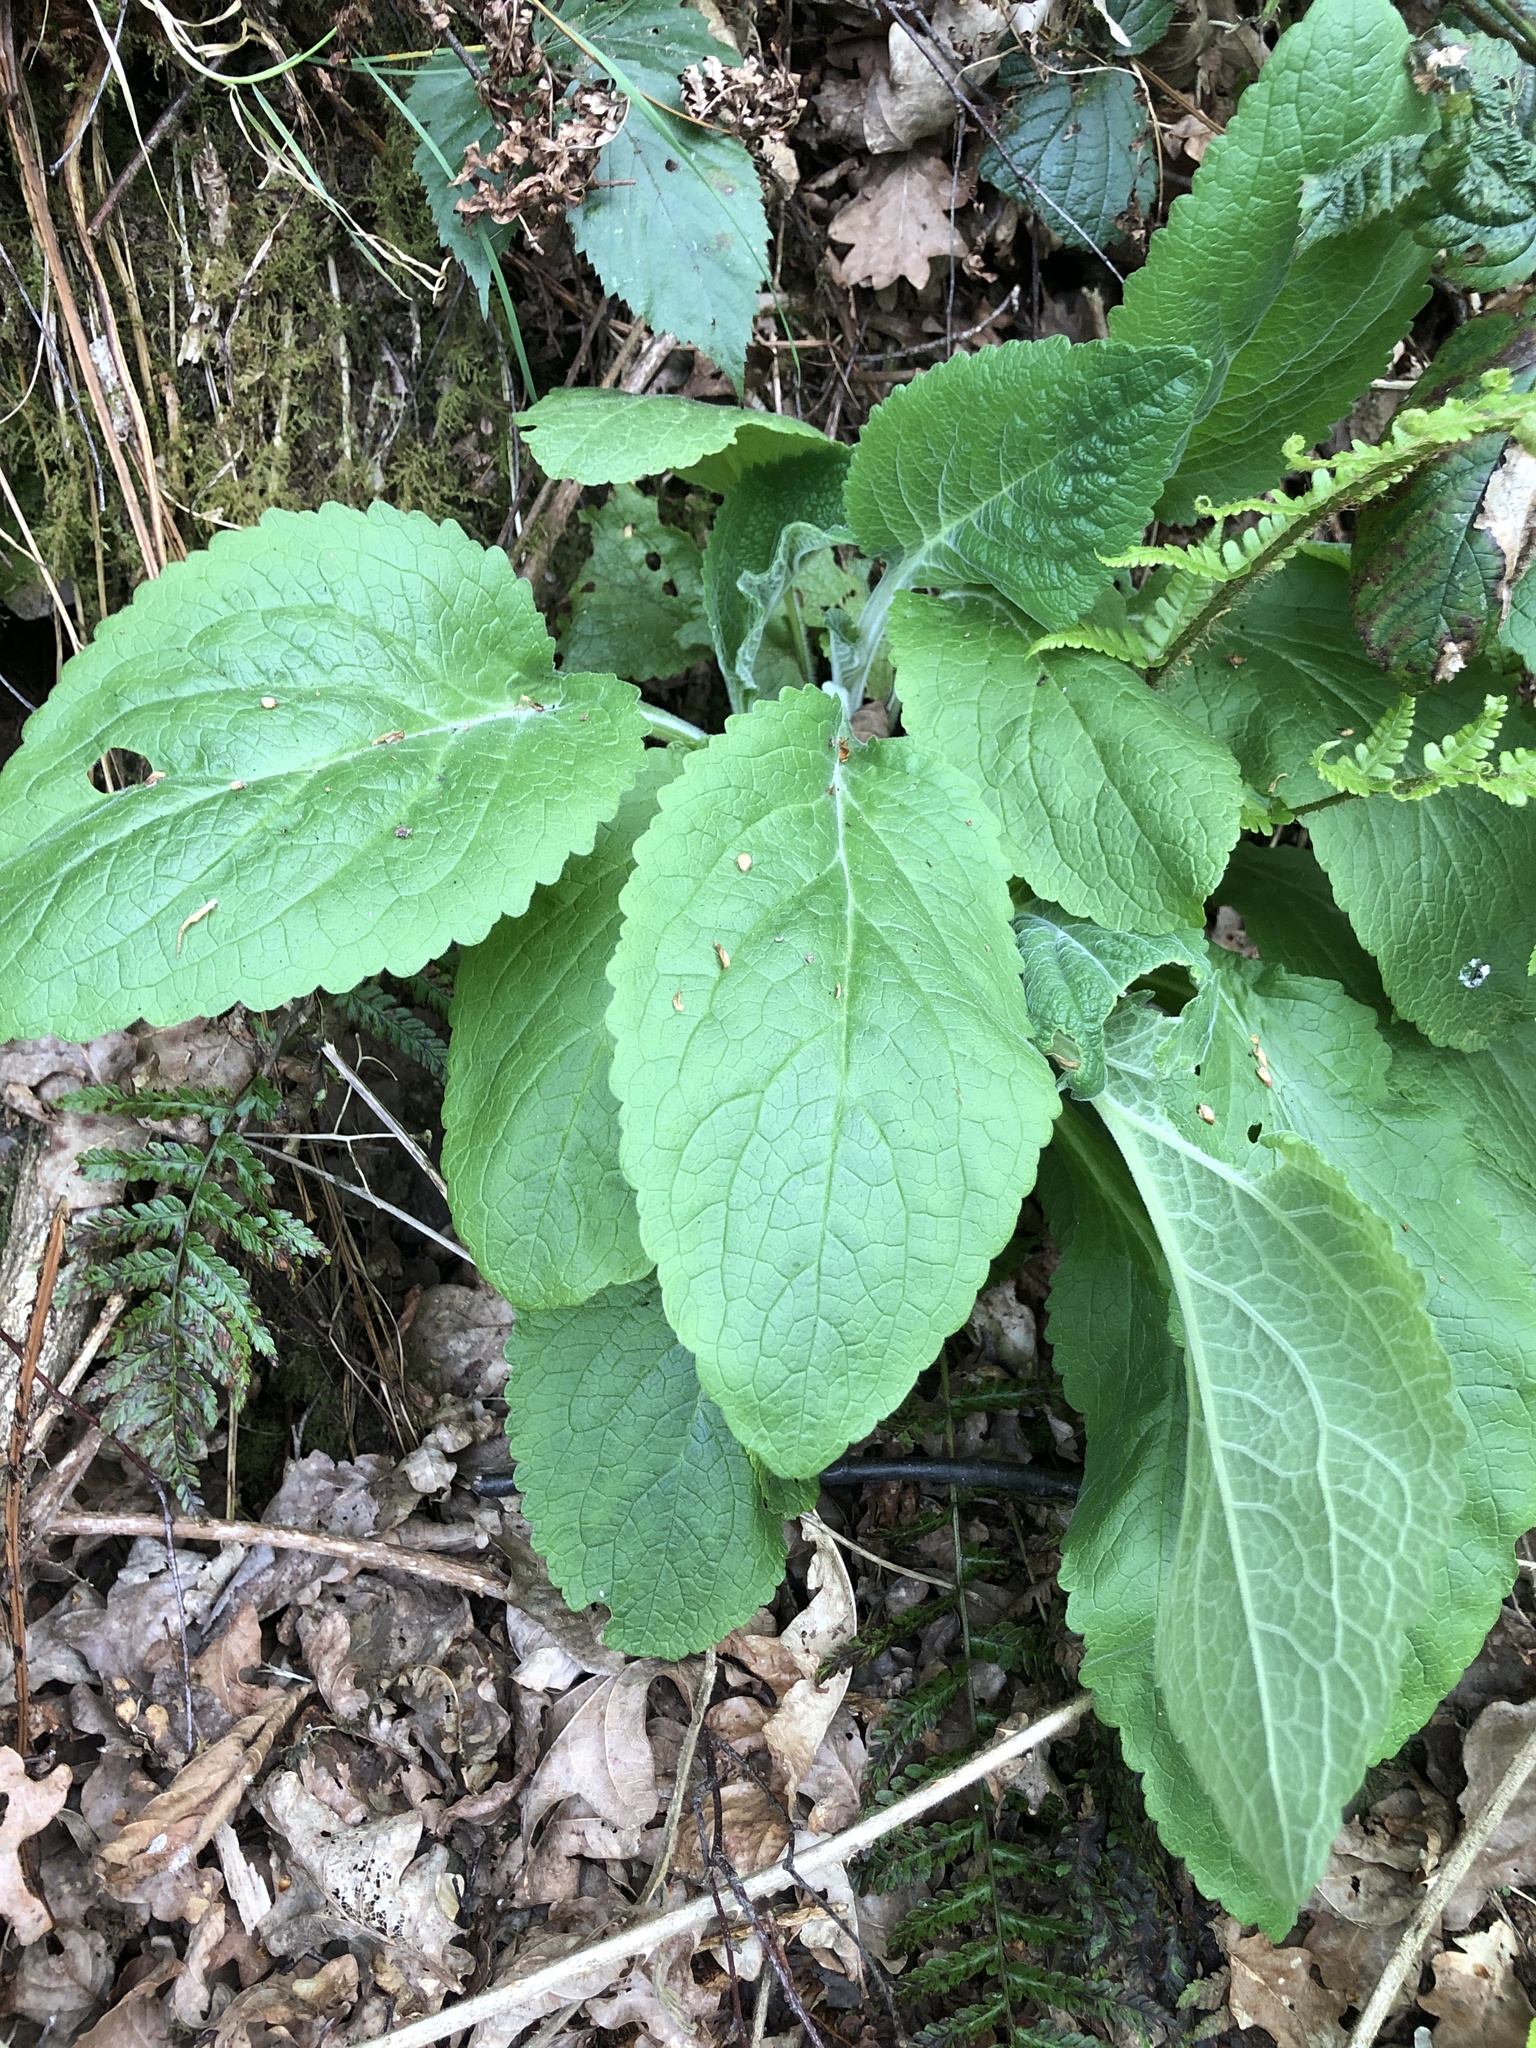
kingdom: Plantae
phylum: Tracheophyta
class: Magnoliopsida
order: Lamiales
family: Plantaginaceae
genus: Digitalis
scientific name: Digitalis purpurea
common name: Foxglove
